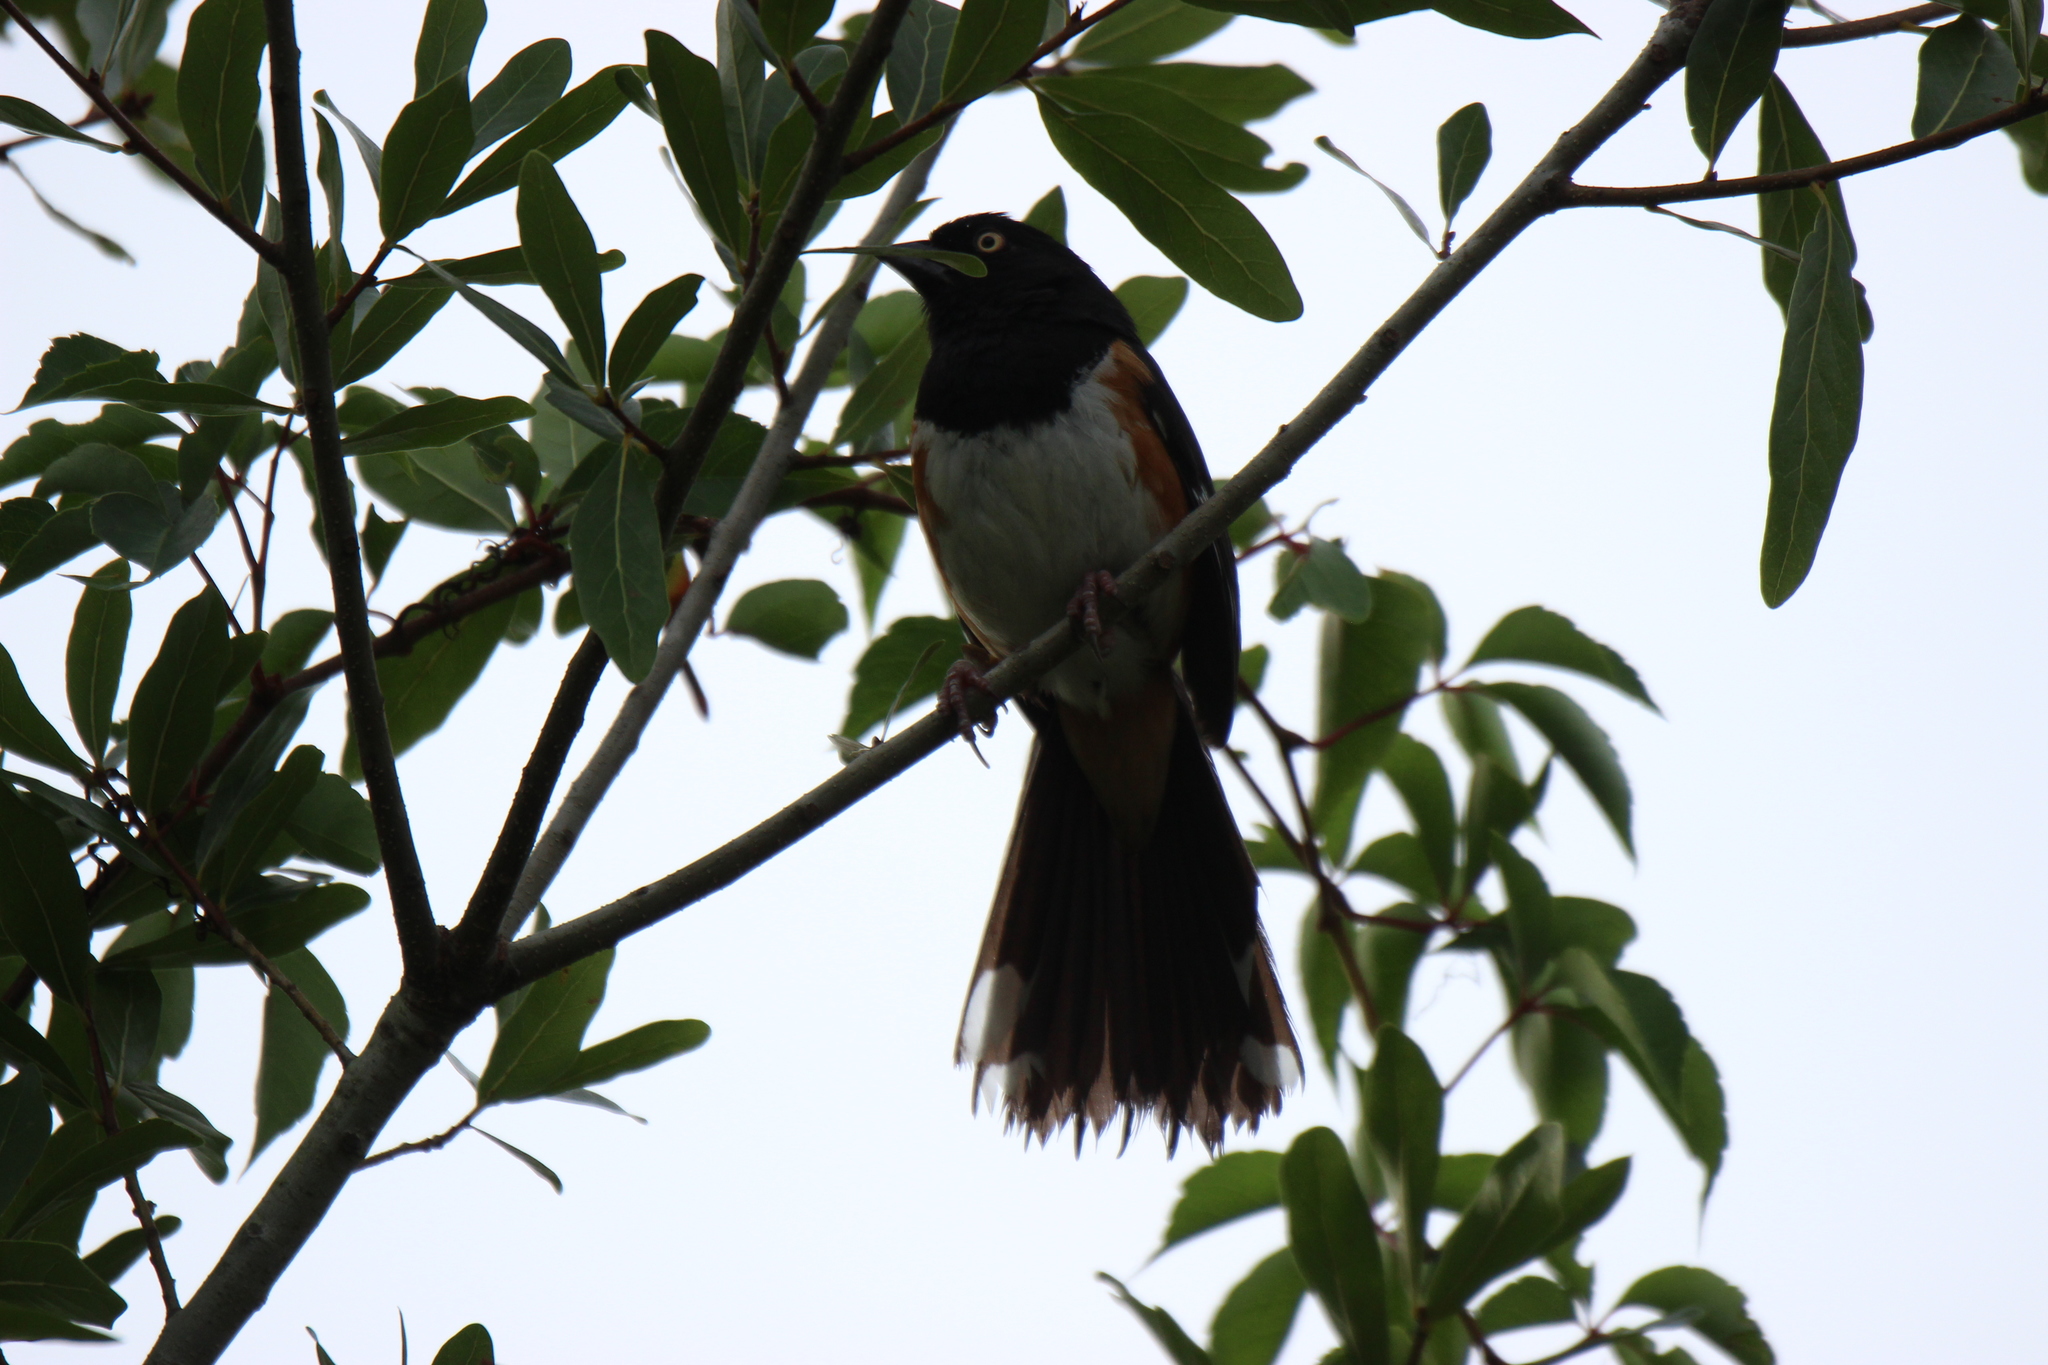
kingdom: Animalia
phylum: Chordata
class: Aves
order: Passeriformes
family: Passerellidae
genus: Pipilo
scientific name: Pipilo erythrophthalmus
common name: Eastern towhee
